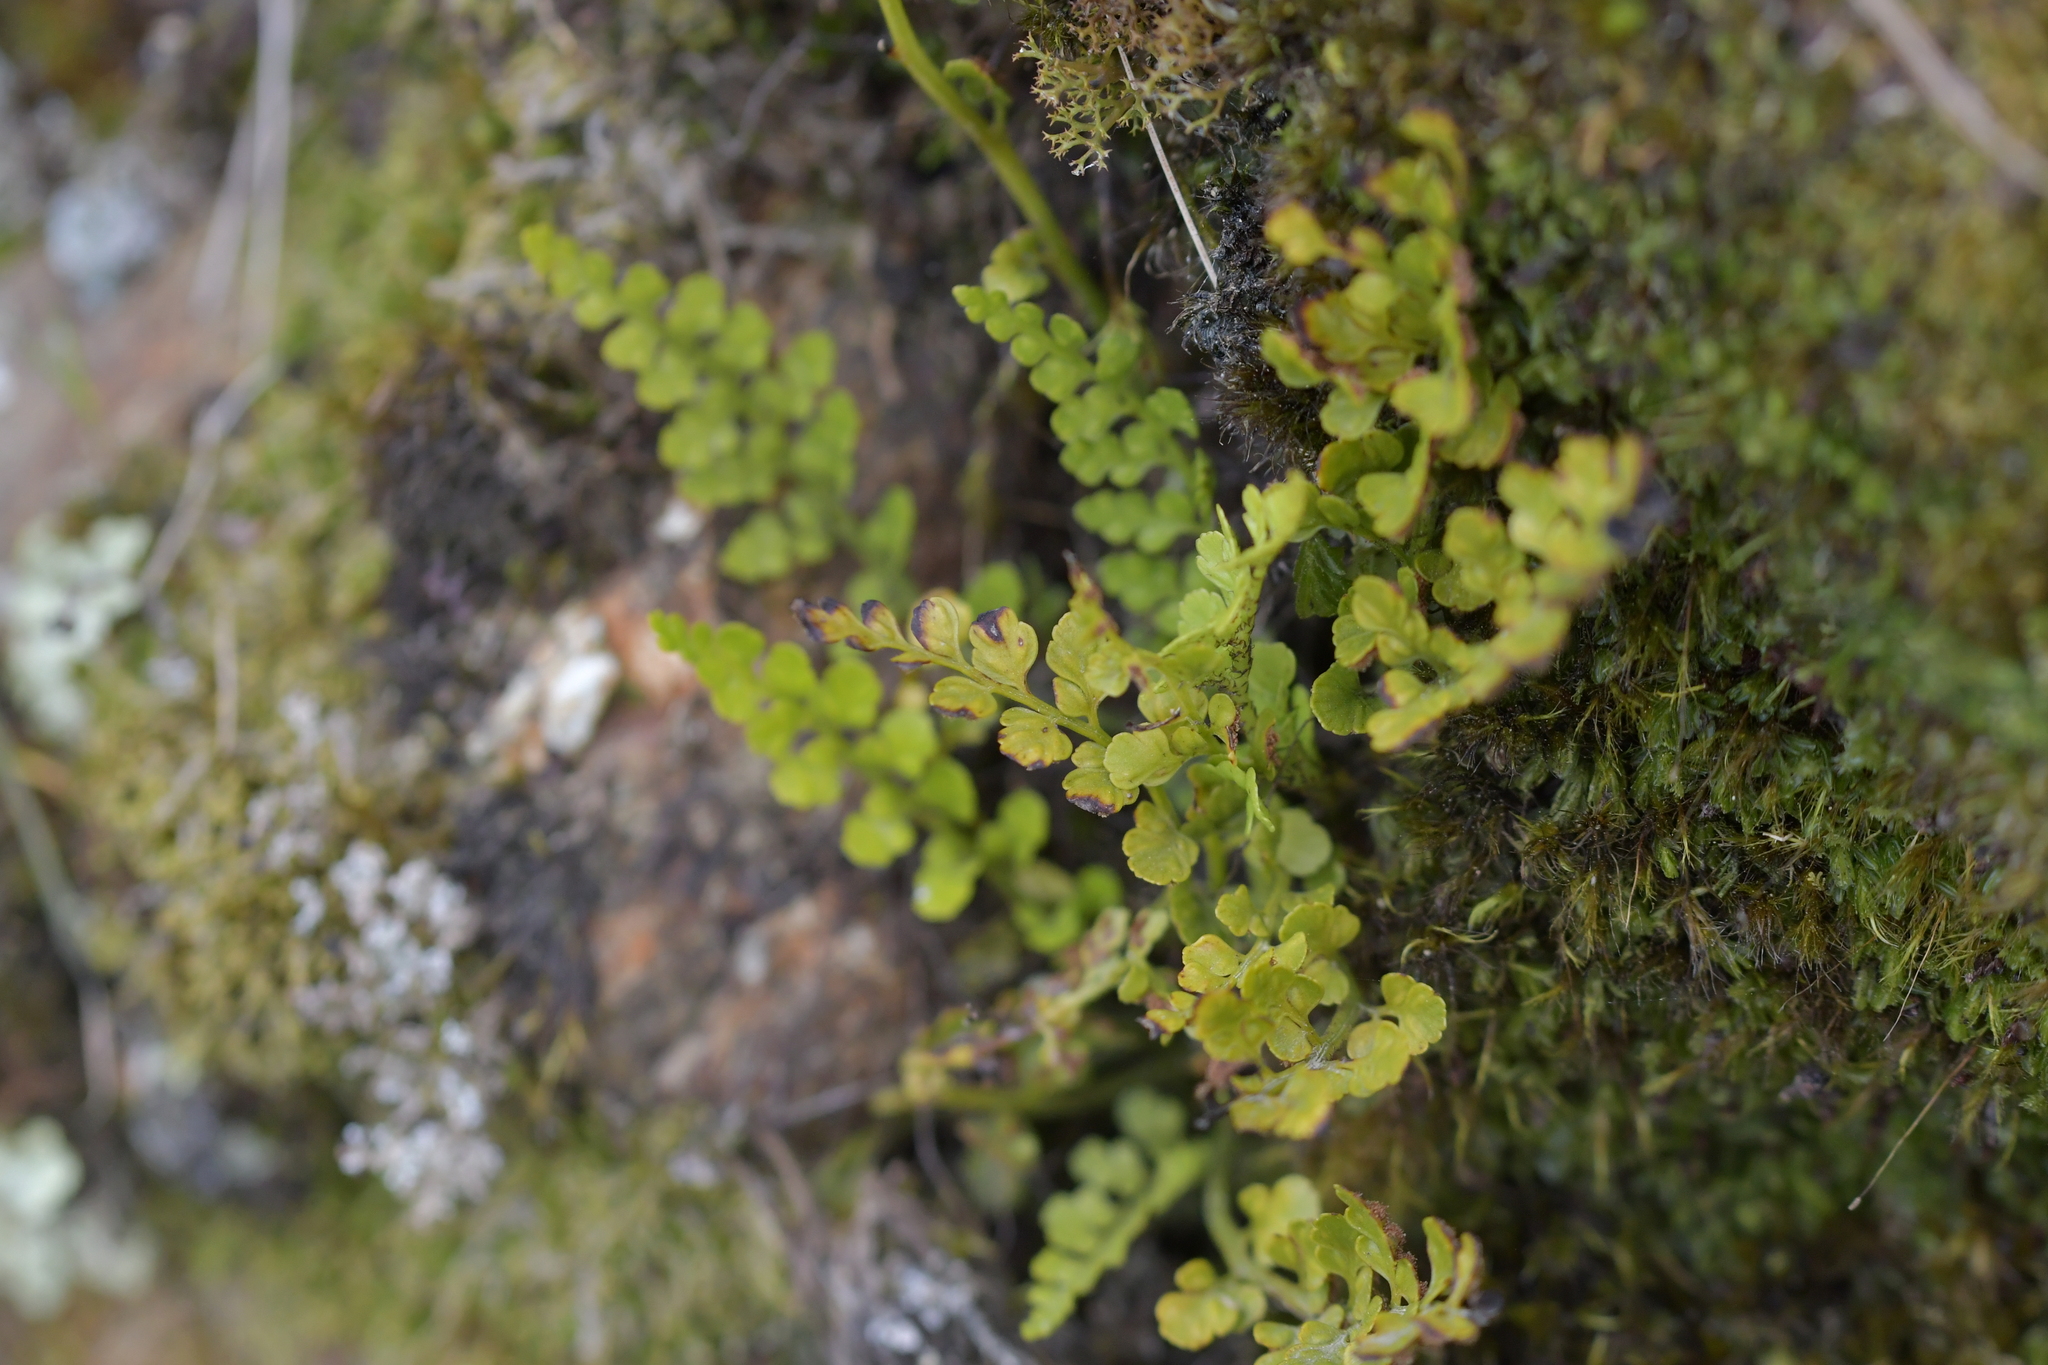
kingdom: Plantae
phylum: Tracheophyta
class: Polypodiopsida
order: Polypodiales
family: Aspleniaceae
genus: Asplenium
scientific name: Asplenium hookerianum
